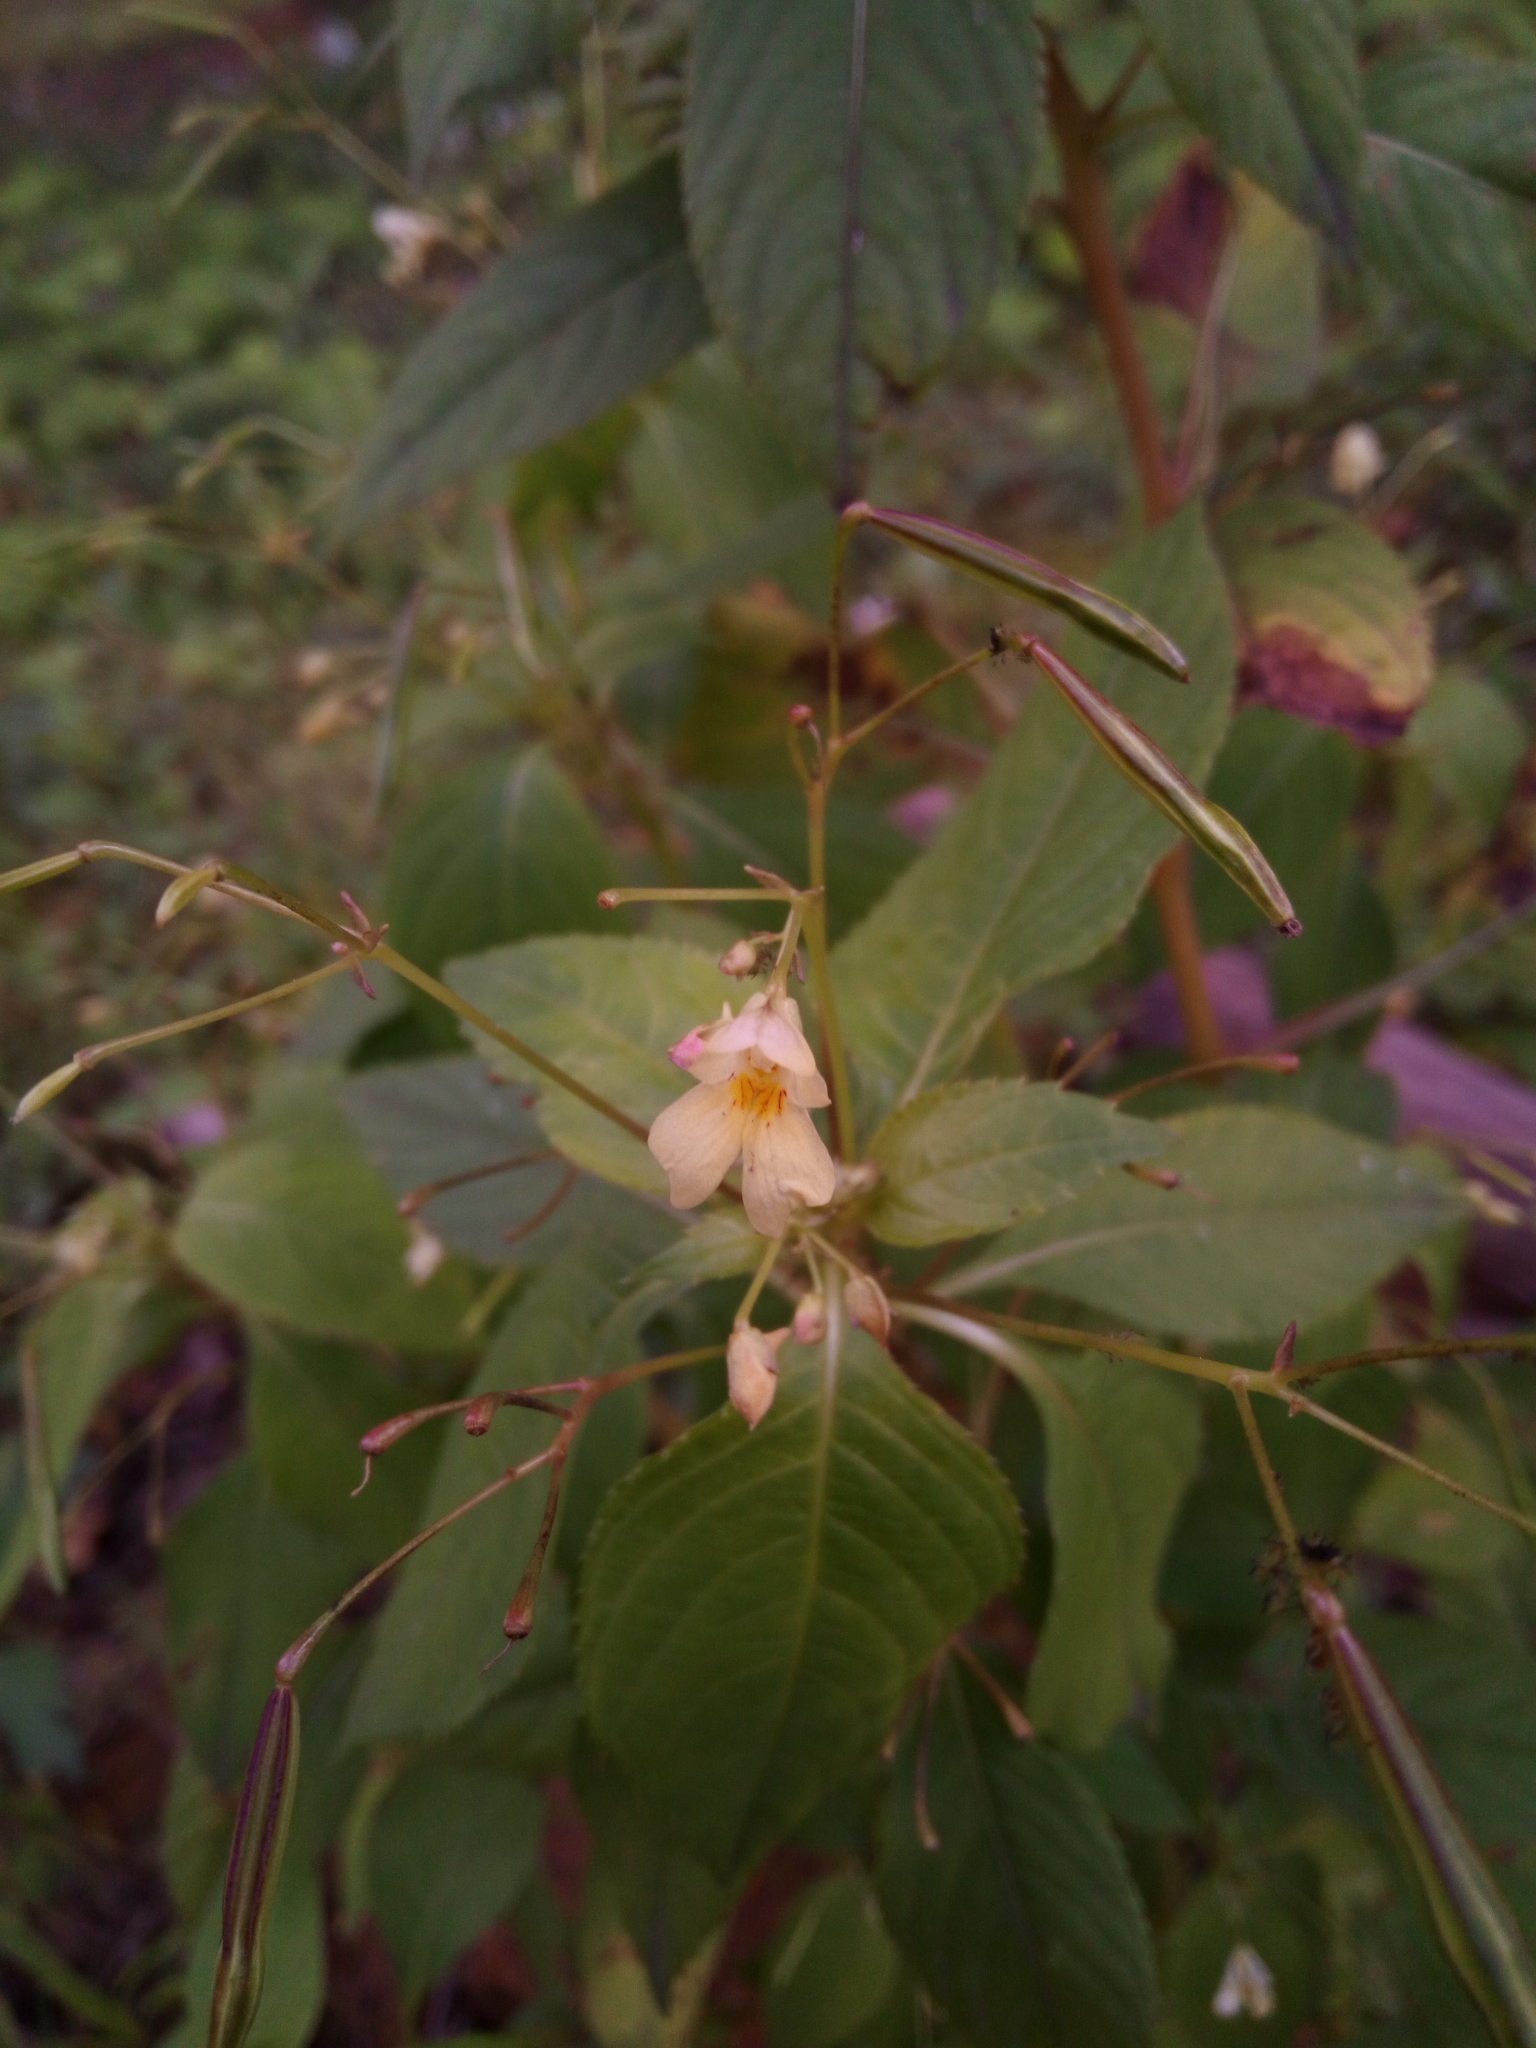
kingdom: Plantae
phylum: Tracheophyta
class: Magnoliopsida
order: Ericales
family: Balsaminaceae
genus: Impatiens
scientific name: Impatiens parviflora
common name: Small balsam
